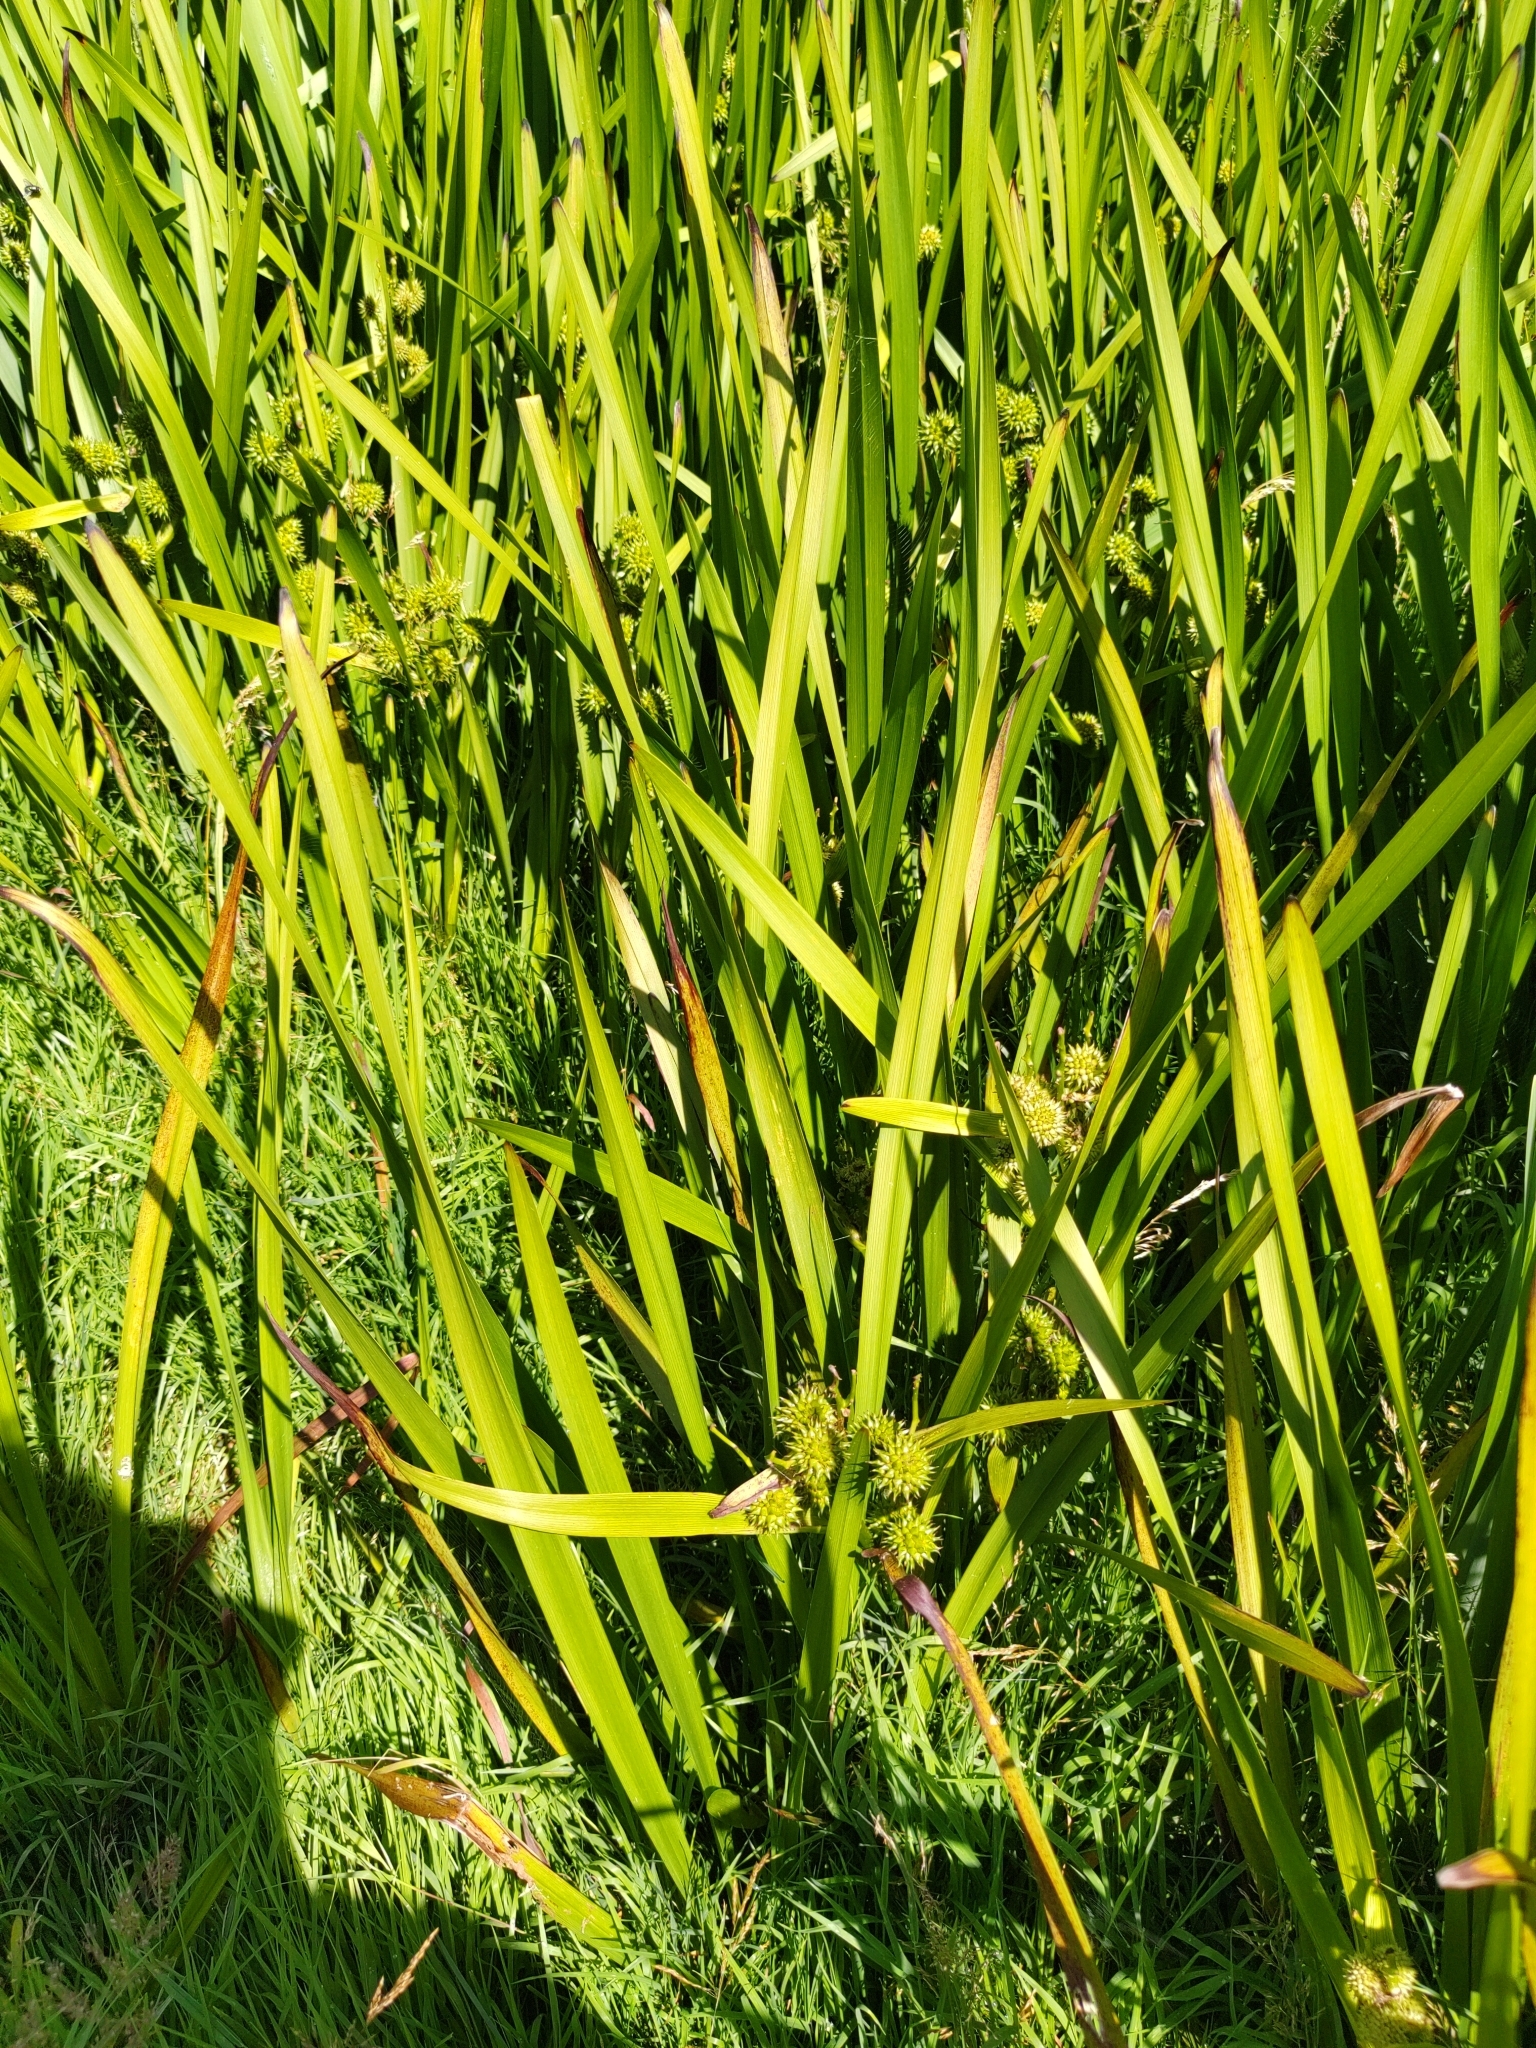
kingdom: Plantae
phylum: Tracheophyta
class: Liliopsida
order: Poales
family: Typhaceae
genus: Sparganium
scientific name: Sparganium erectum
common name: Branched bur-reed
